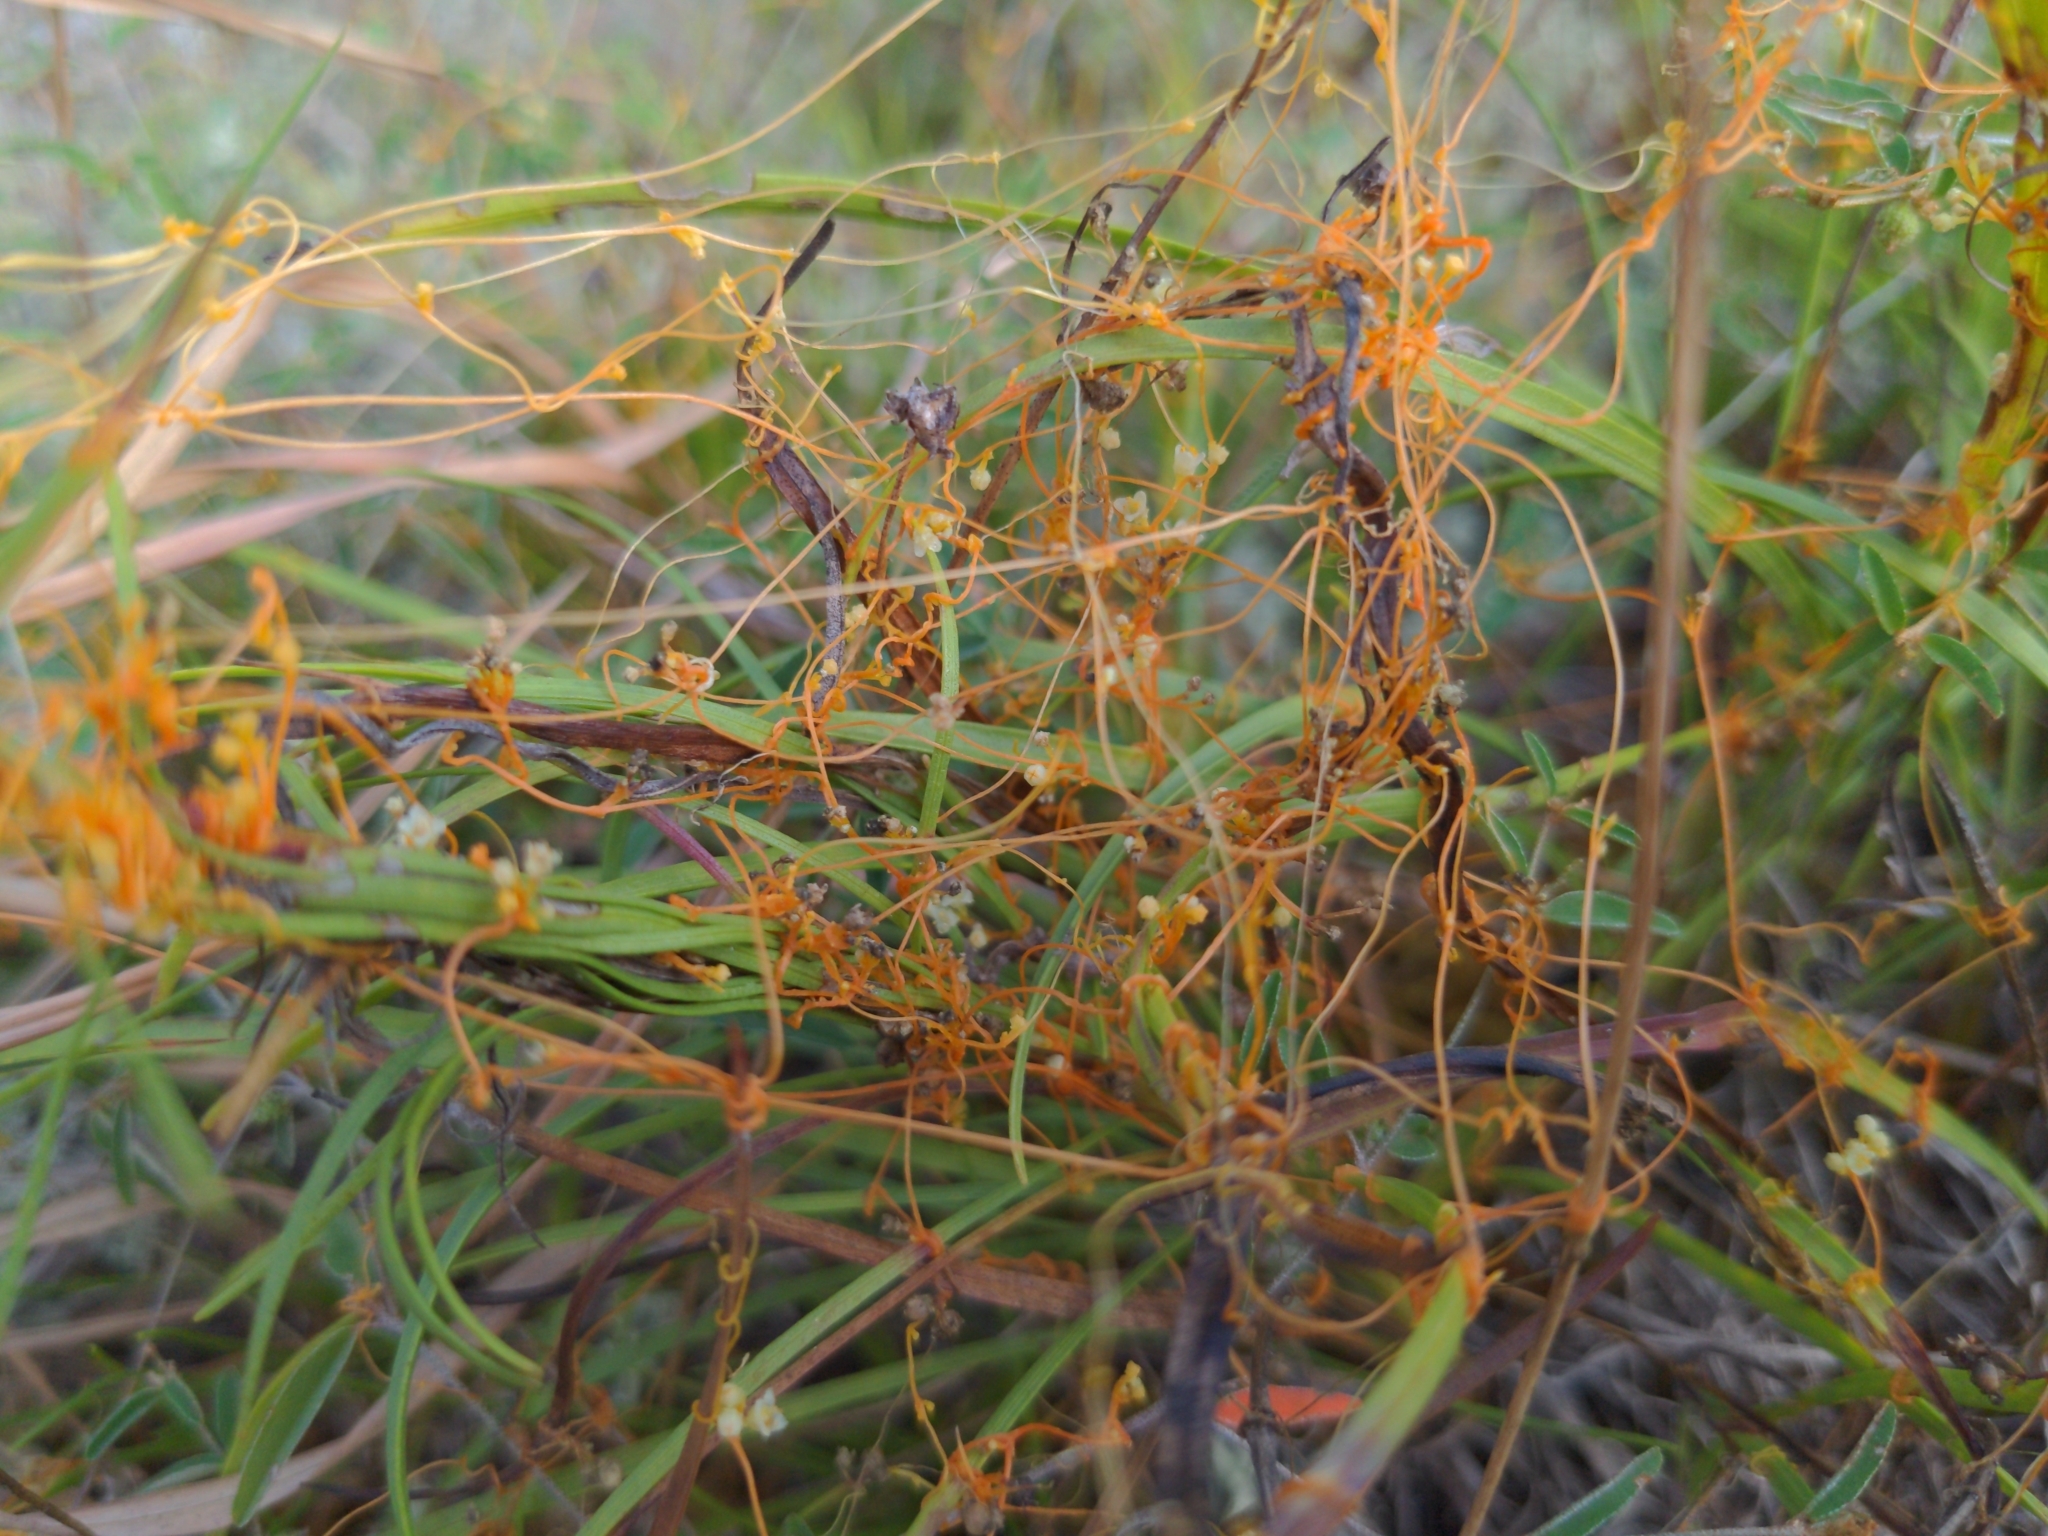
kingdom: Plantae
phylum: Tracheophyta
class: Magnoliopsida
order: Solanales
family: Convolvulaceae
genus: Cuscuta
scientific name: Cuscuta harperi
